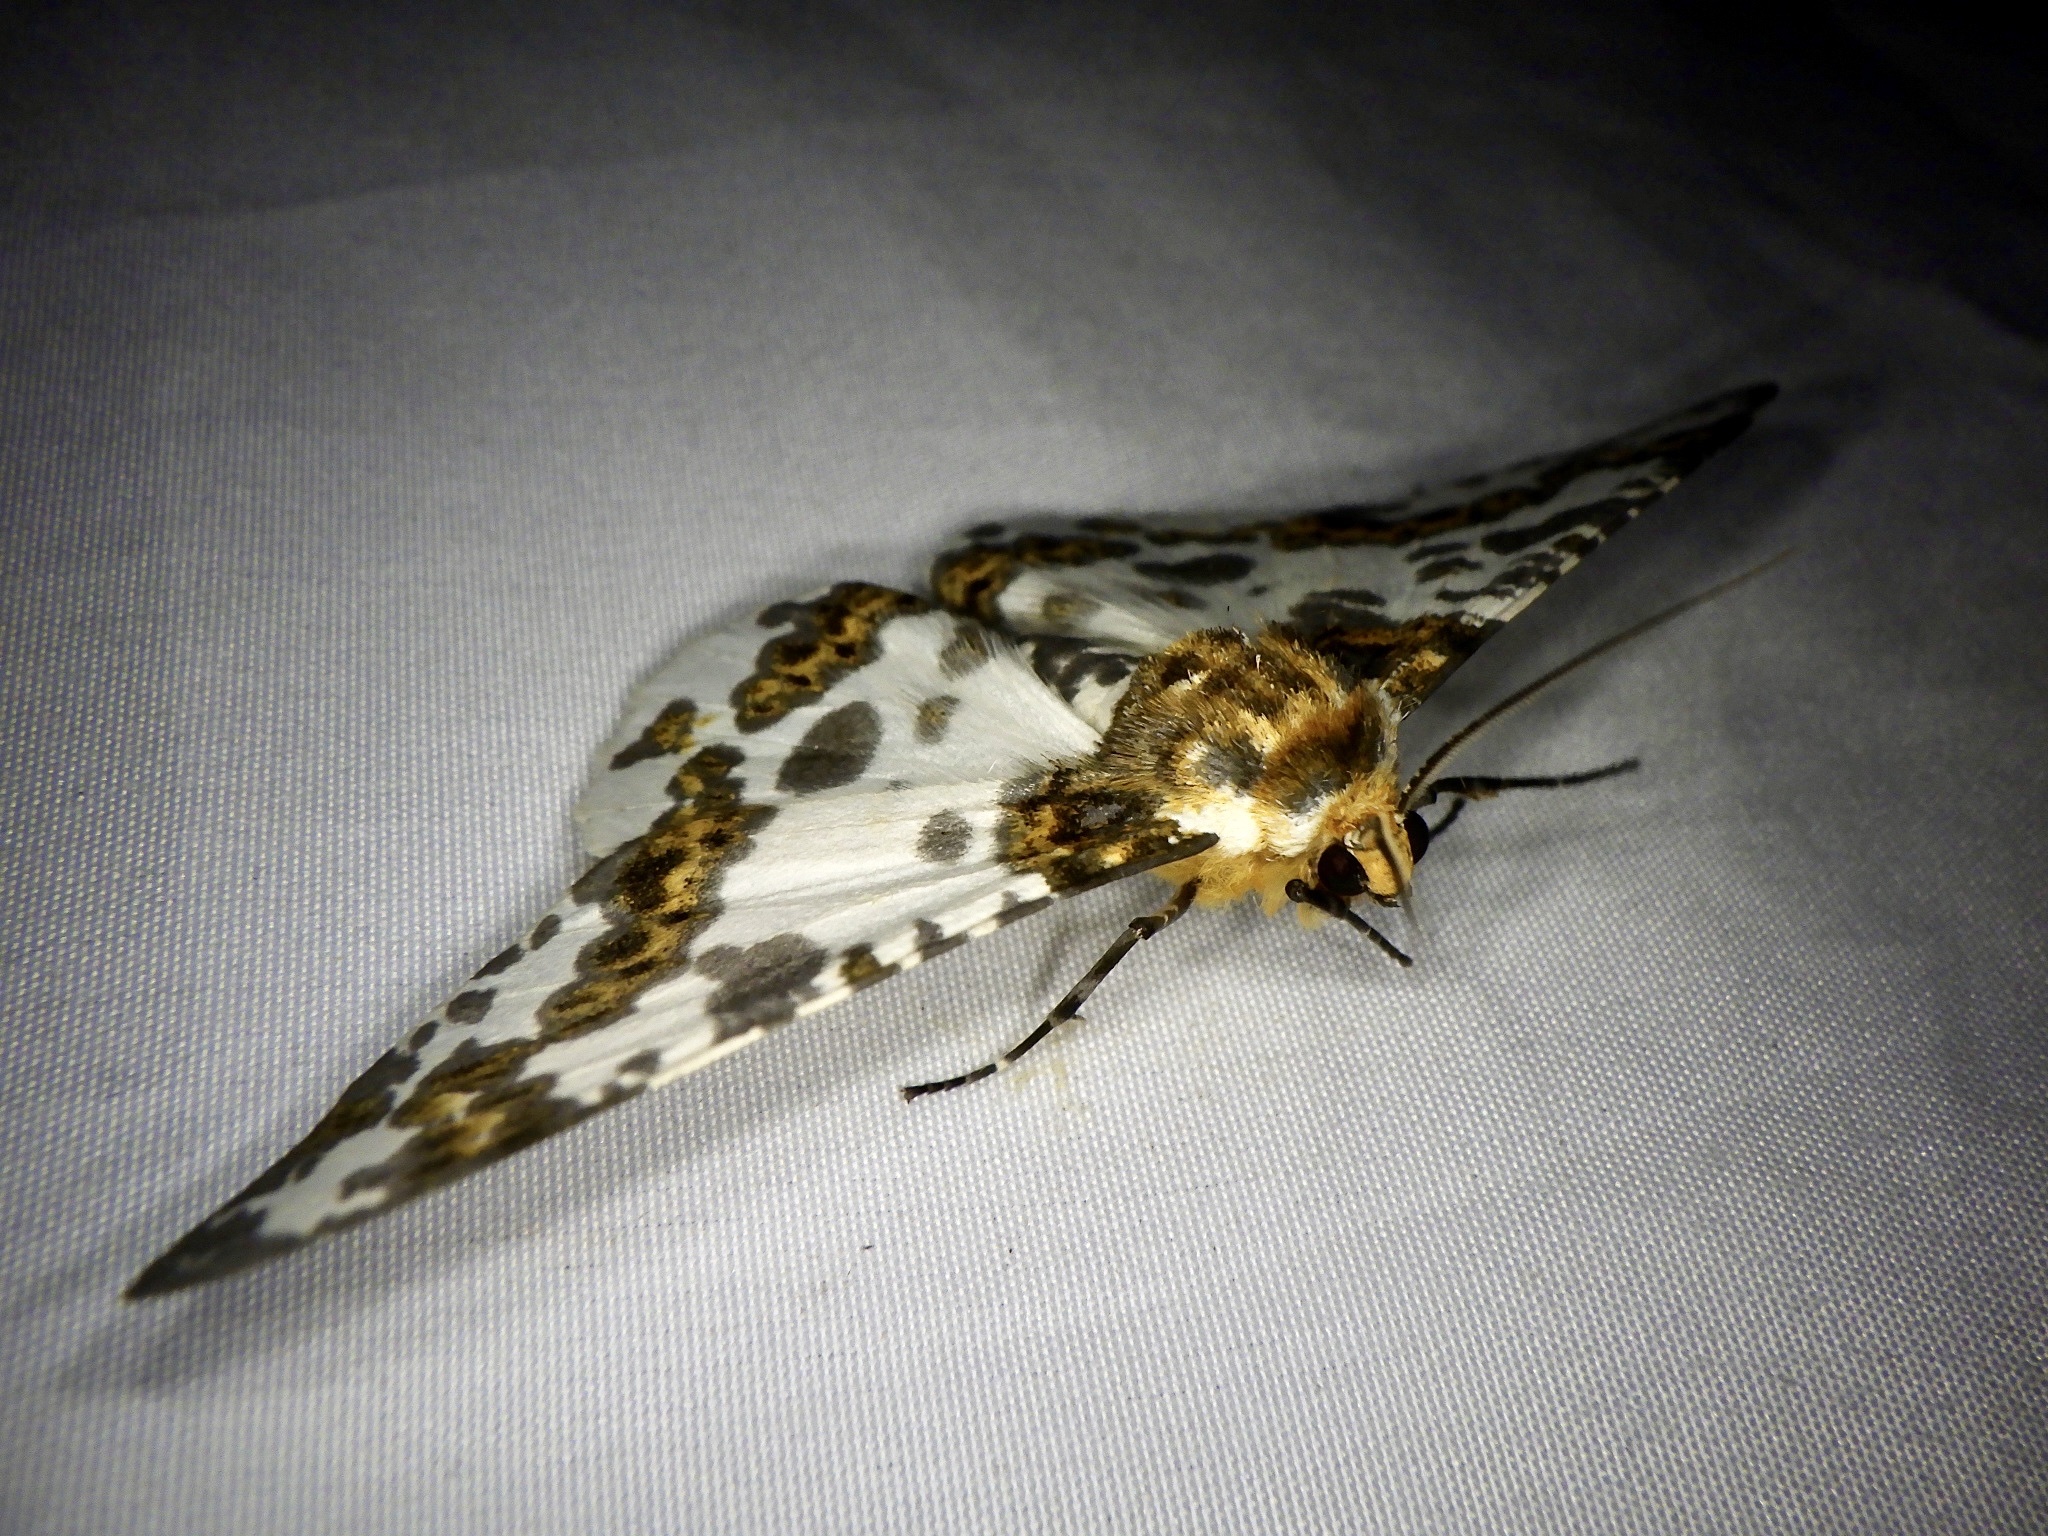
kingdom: Animalia
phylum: Arthropoda
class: Insecta
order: Lepidoptera
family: Geometridae
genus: Biston
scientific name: Biston panterinaria
